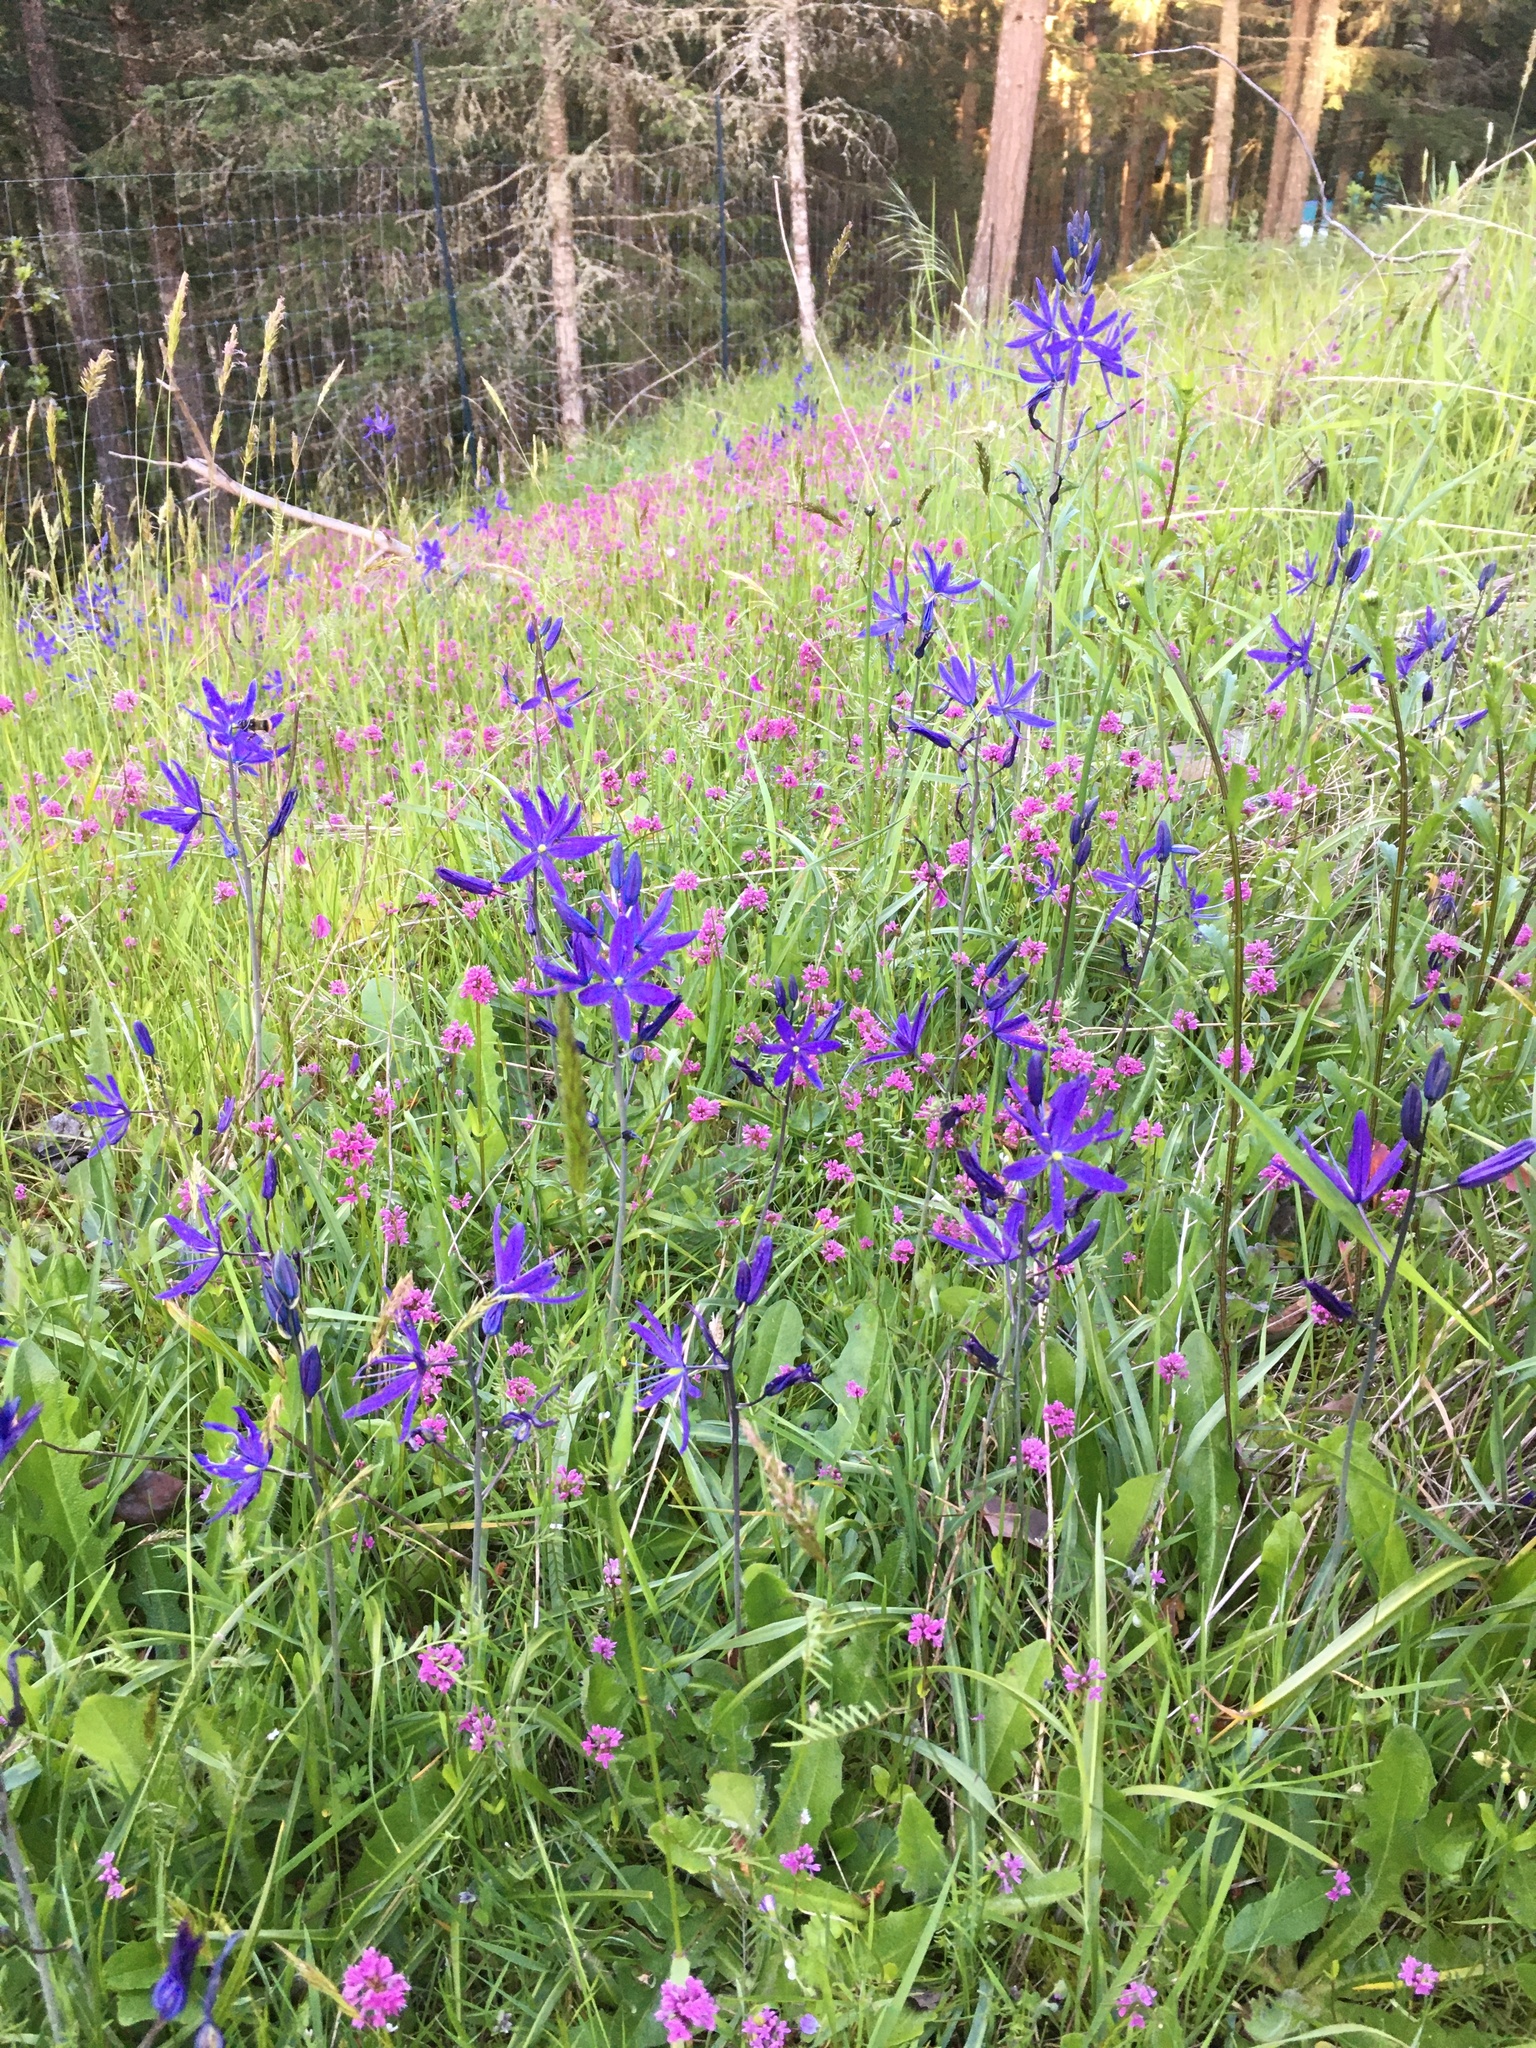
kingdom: Plantae
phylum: Tracheophyta
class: Liliopsida
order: Asparagales
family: Asparagaceae
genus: Camassia
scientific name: Camassia leichtlinii
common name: Leichtlin's camas
